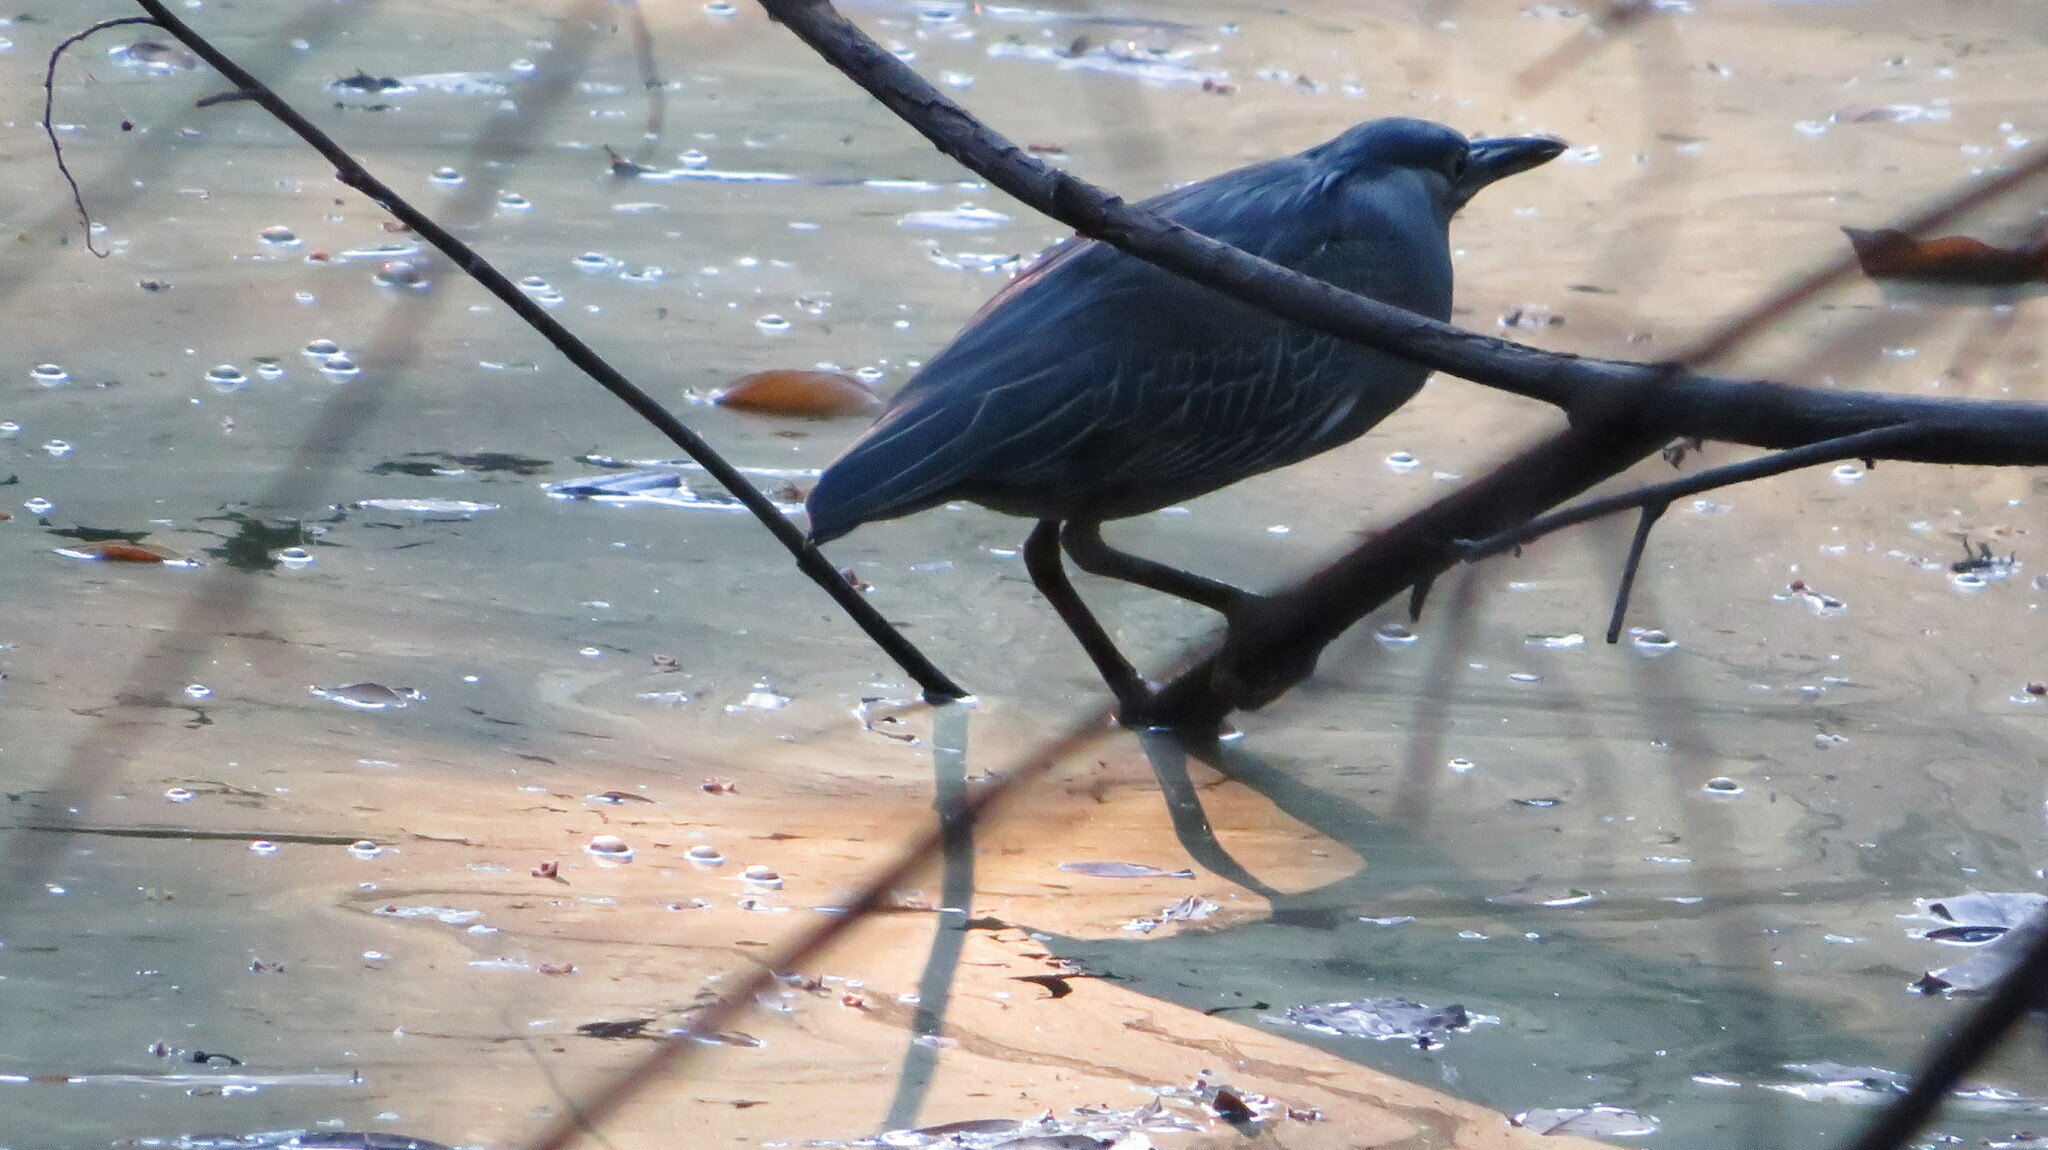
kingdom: Animalia
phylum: Chordata
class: Aves
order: Pelecaniformes
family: Ardeidae
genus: Butorides
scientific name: Butorides striata
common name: Striated heron
